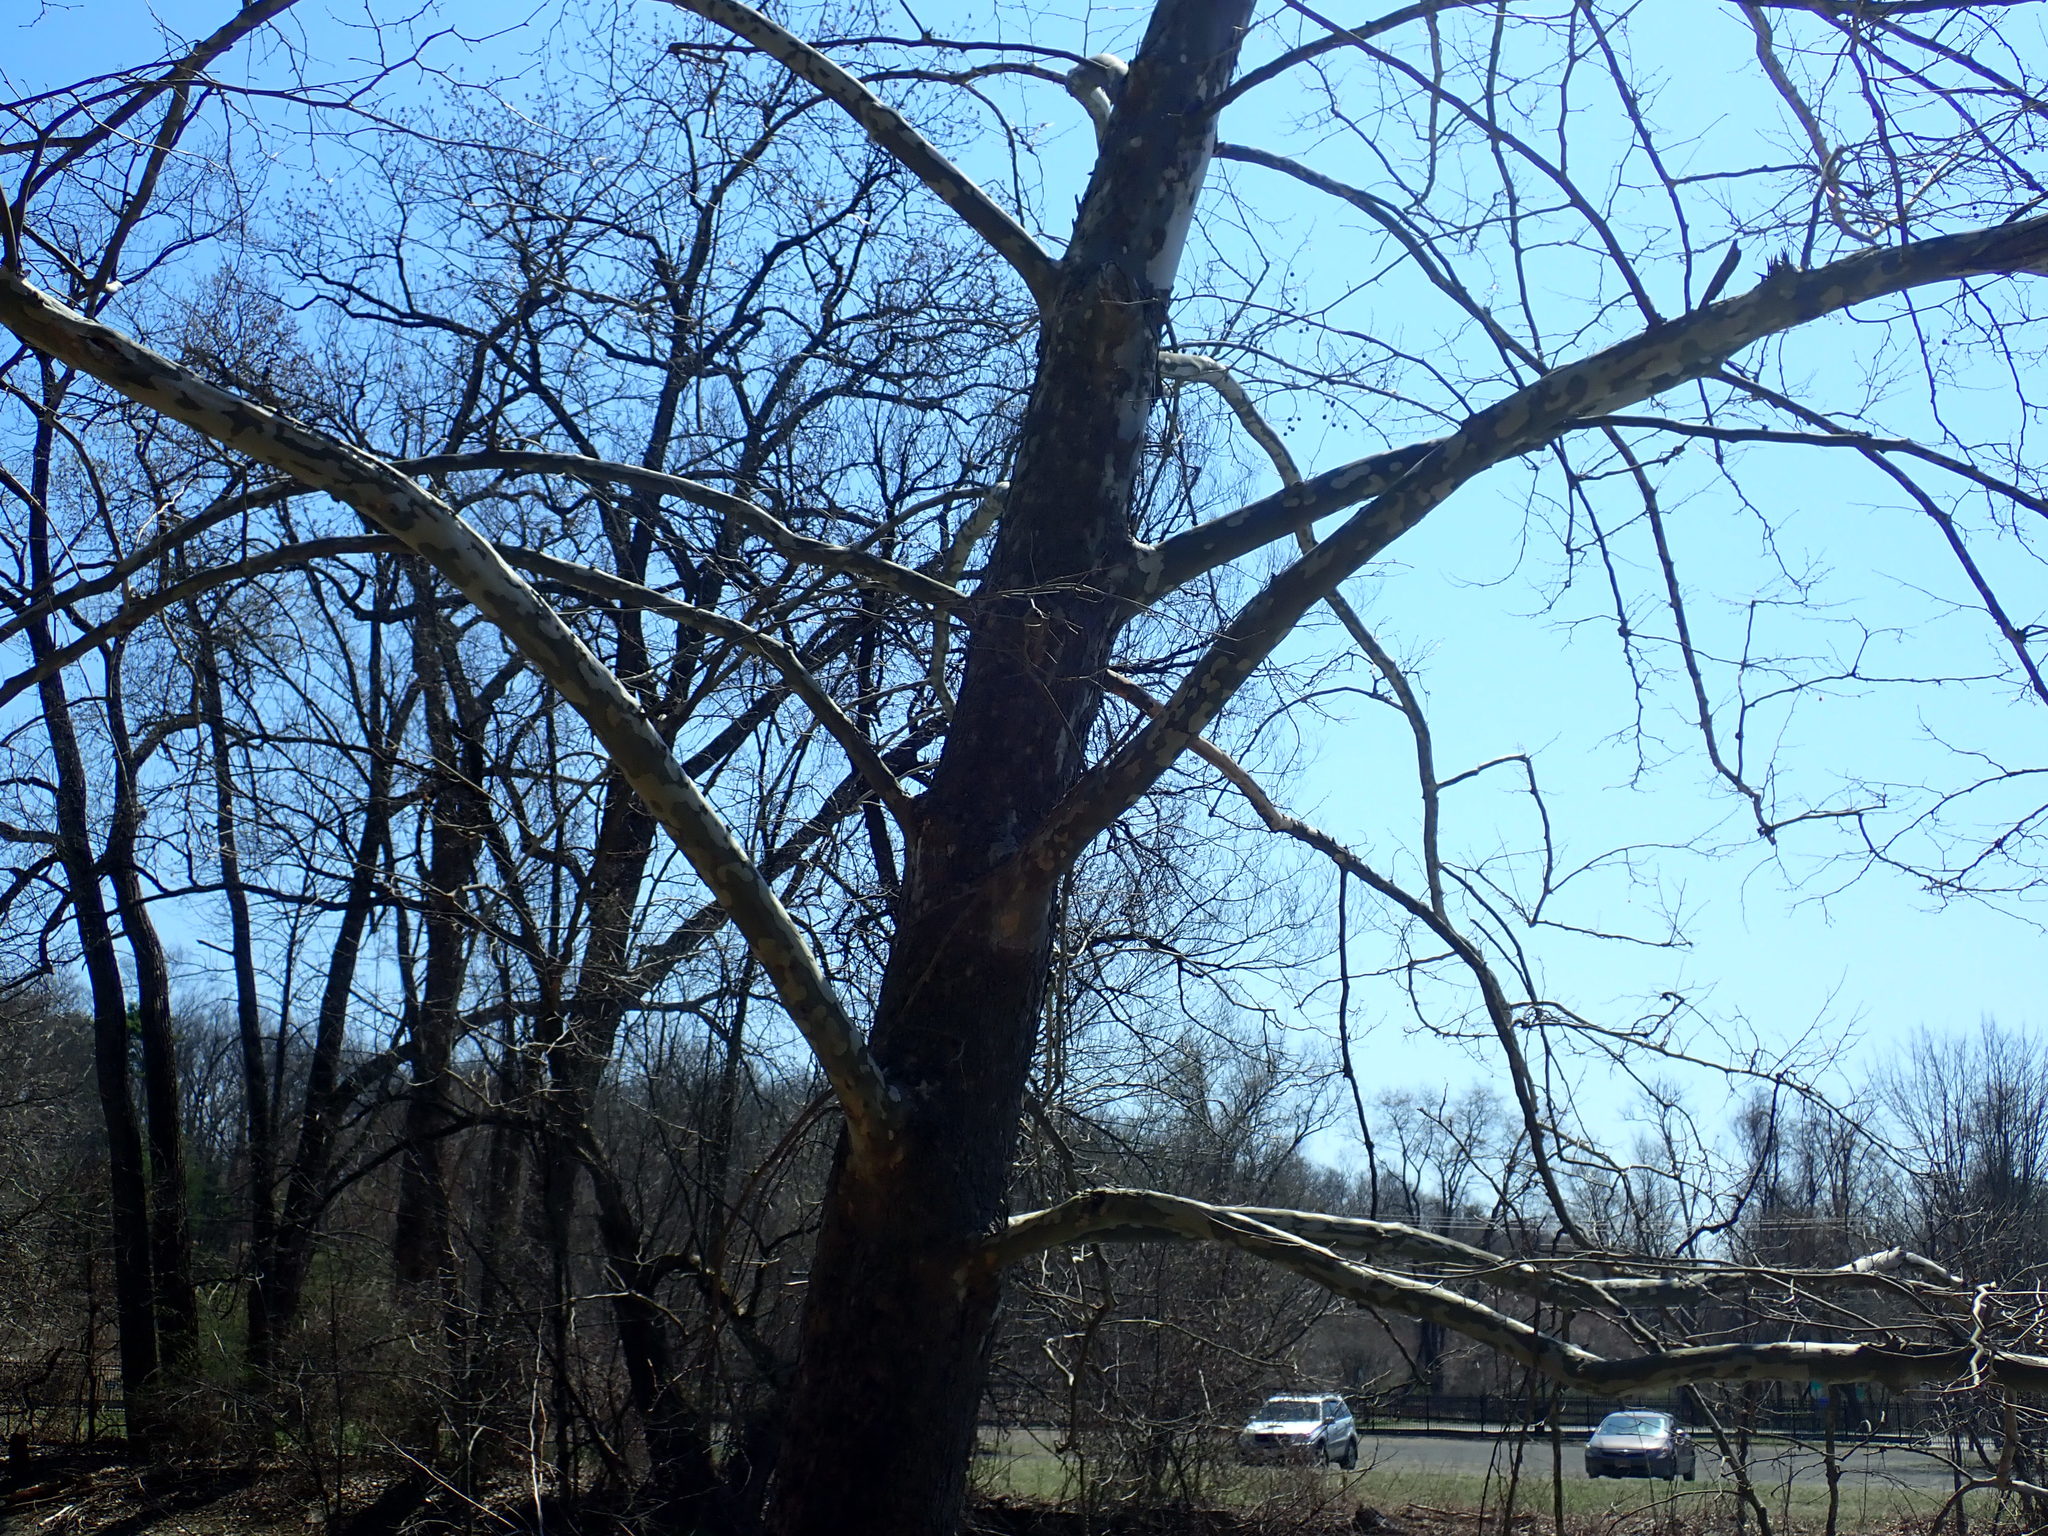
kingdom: Plantae
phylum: Tracheophyta
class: Magnoliopsida
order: Proteales
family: Platanaceae
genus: Platanus
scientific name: Platanus occidentalis
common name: American sycamore
